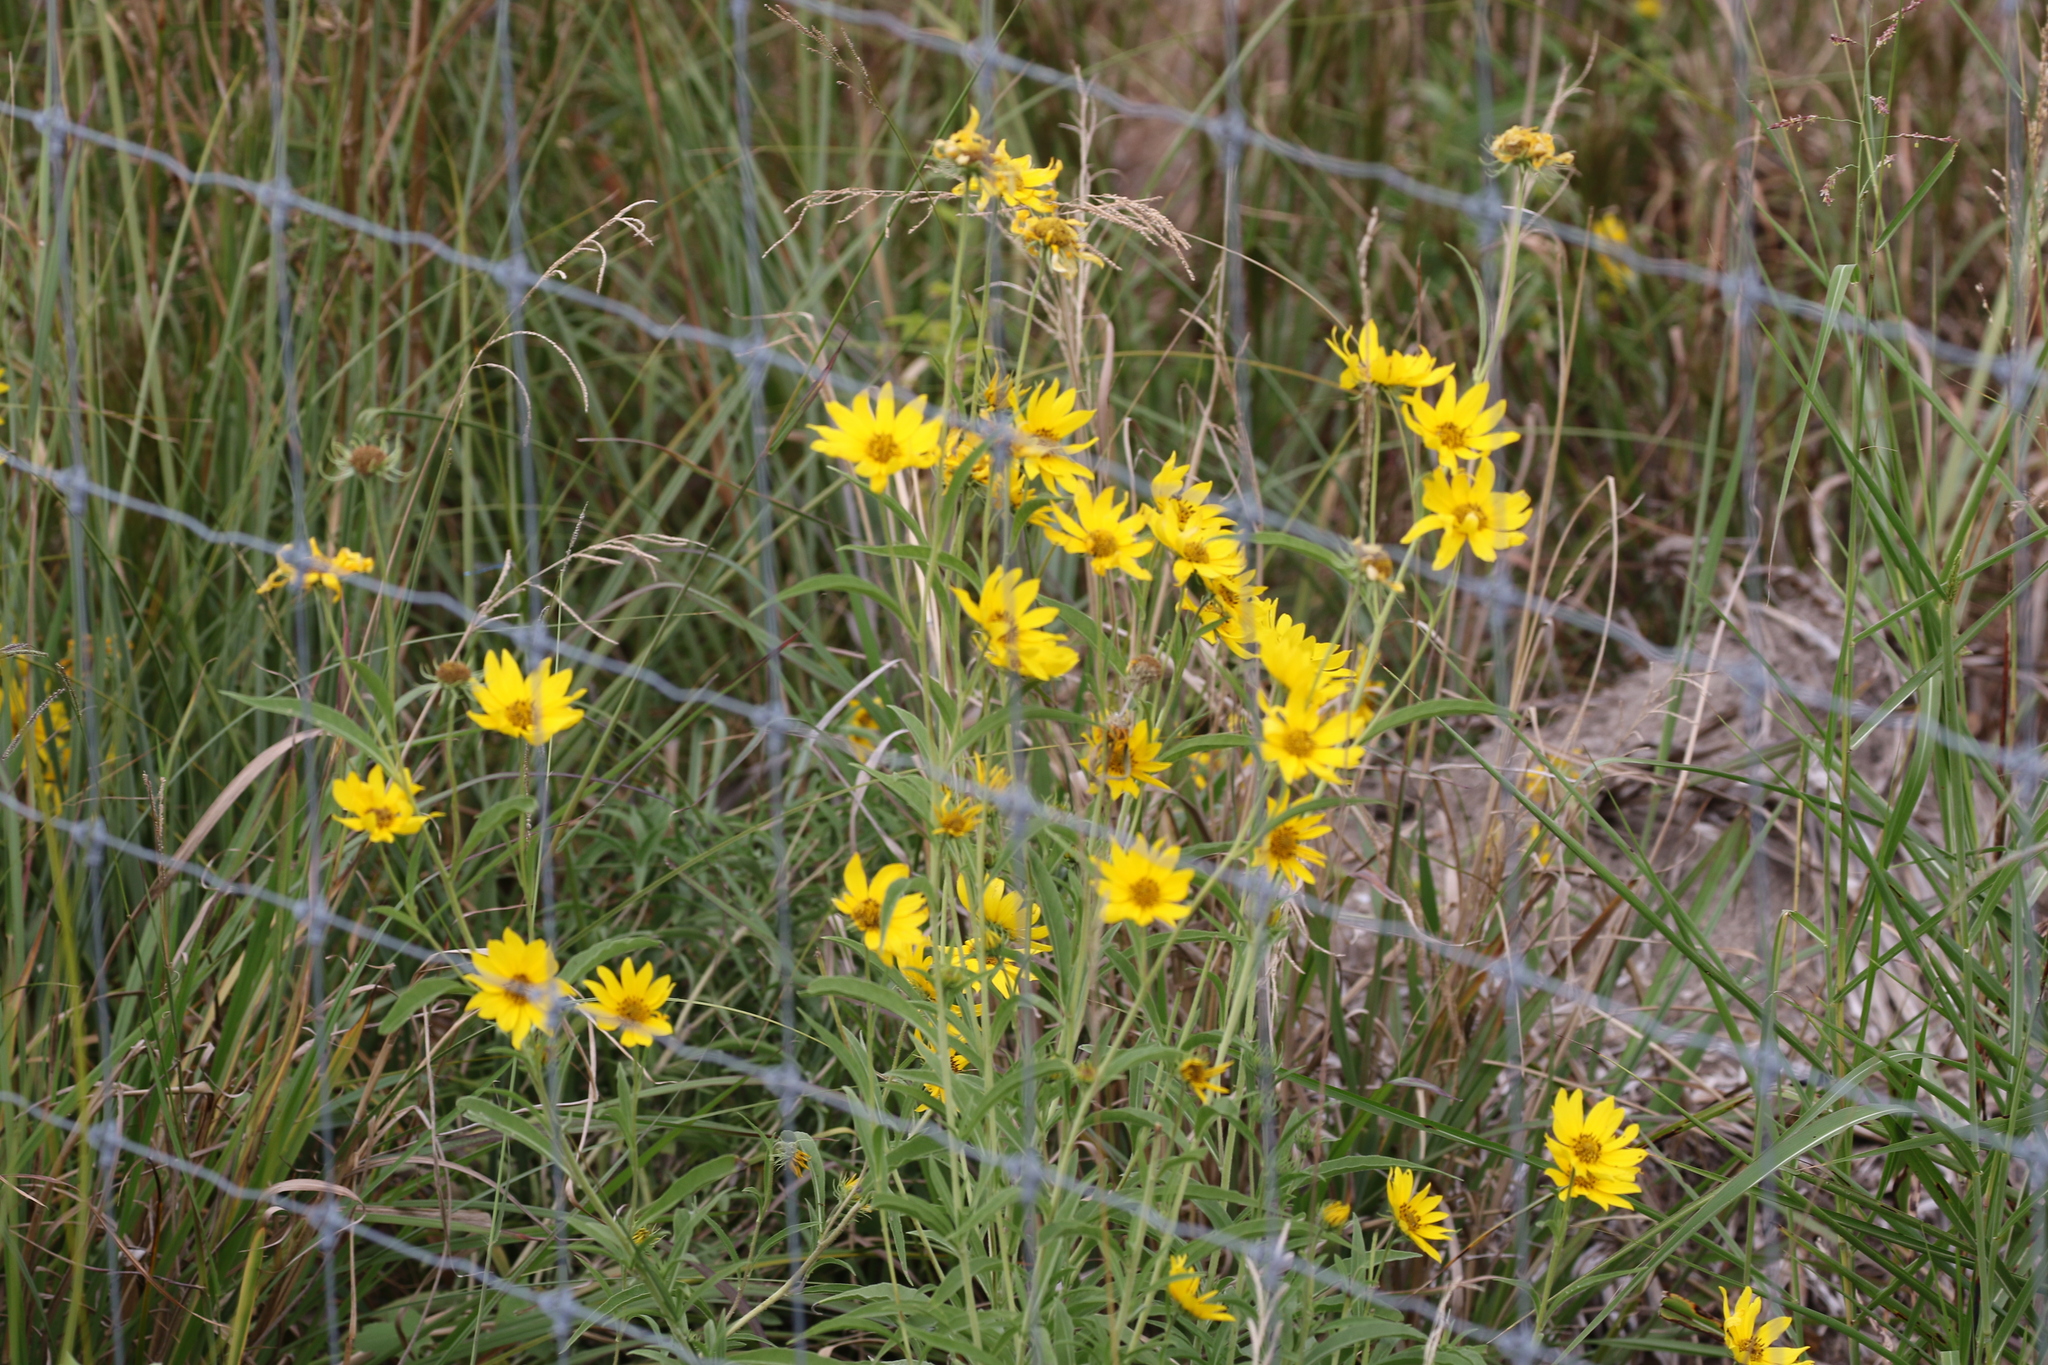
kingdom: Plantae
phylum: Tracheophyta
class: Magnoliopsida
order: Asterales
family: Asteraceae
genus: Helianthus
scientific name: Helianthus maximiliani
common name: Maximilian's sunflower
